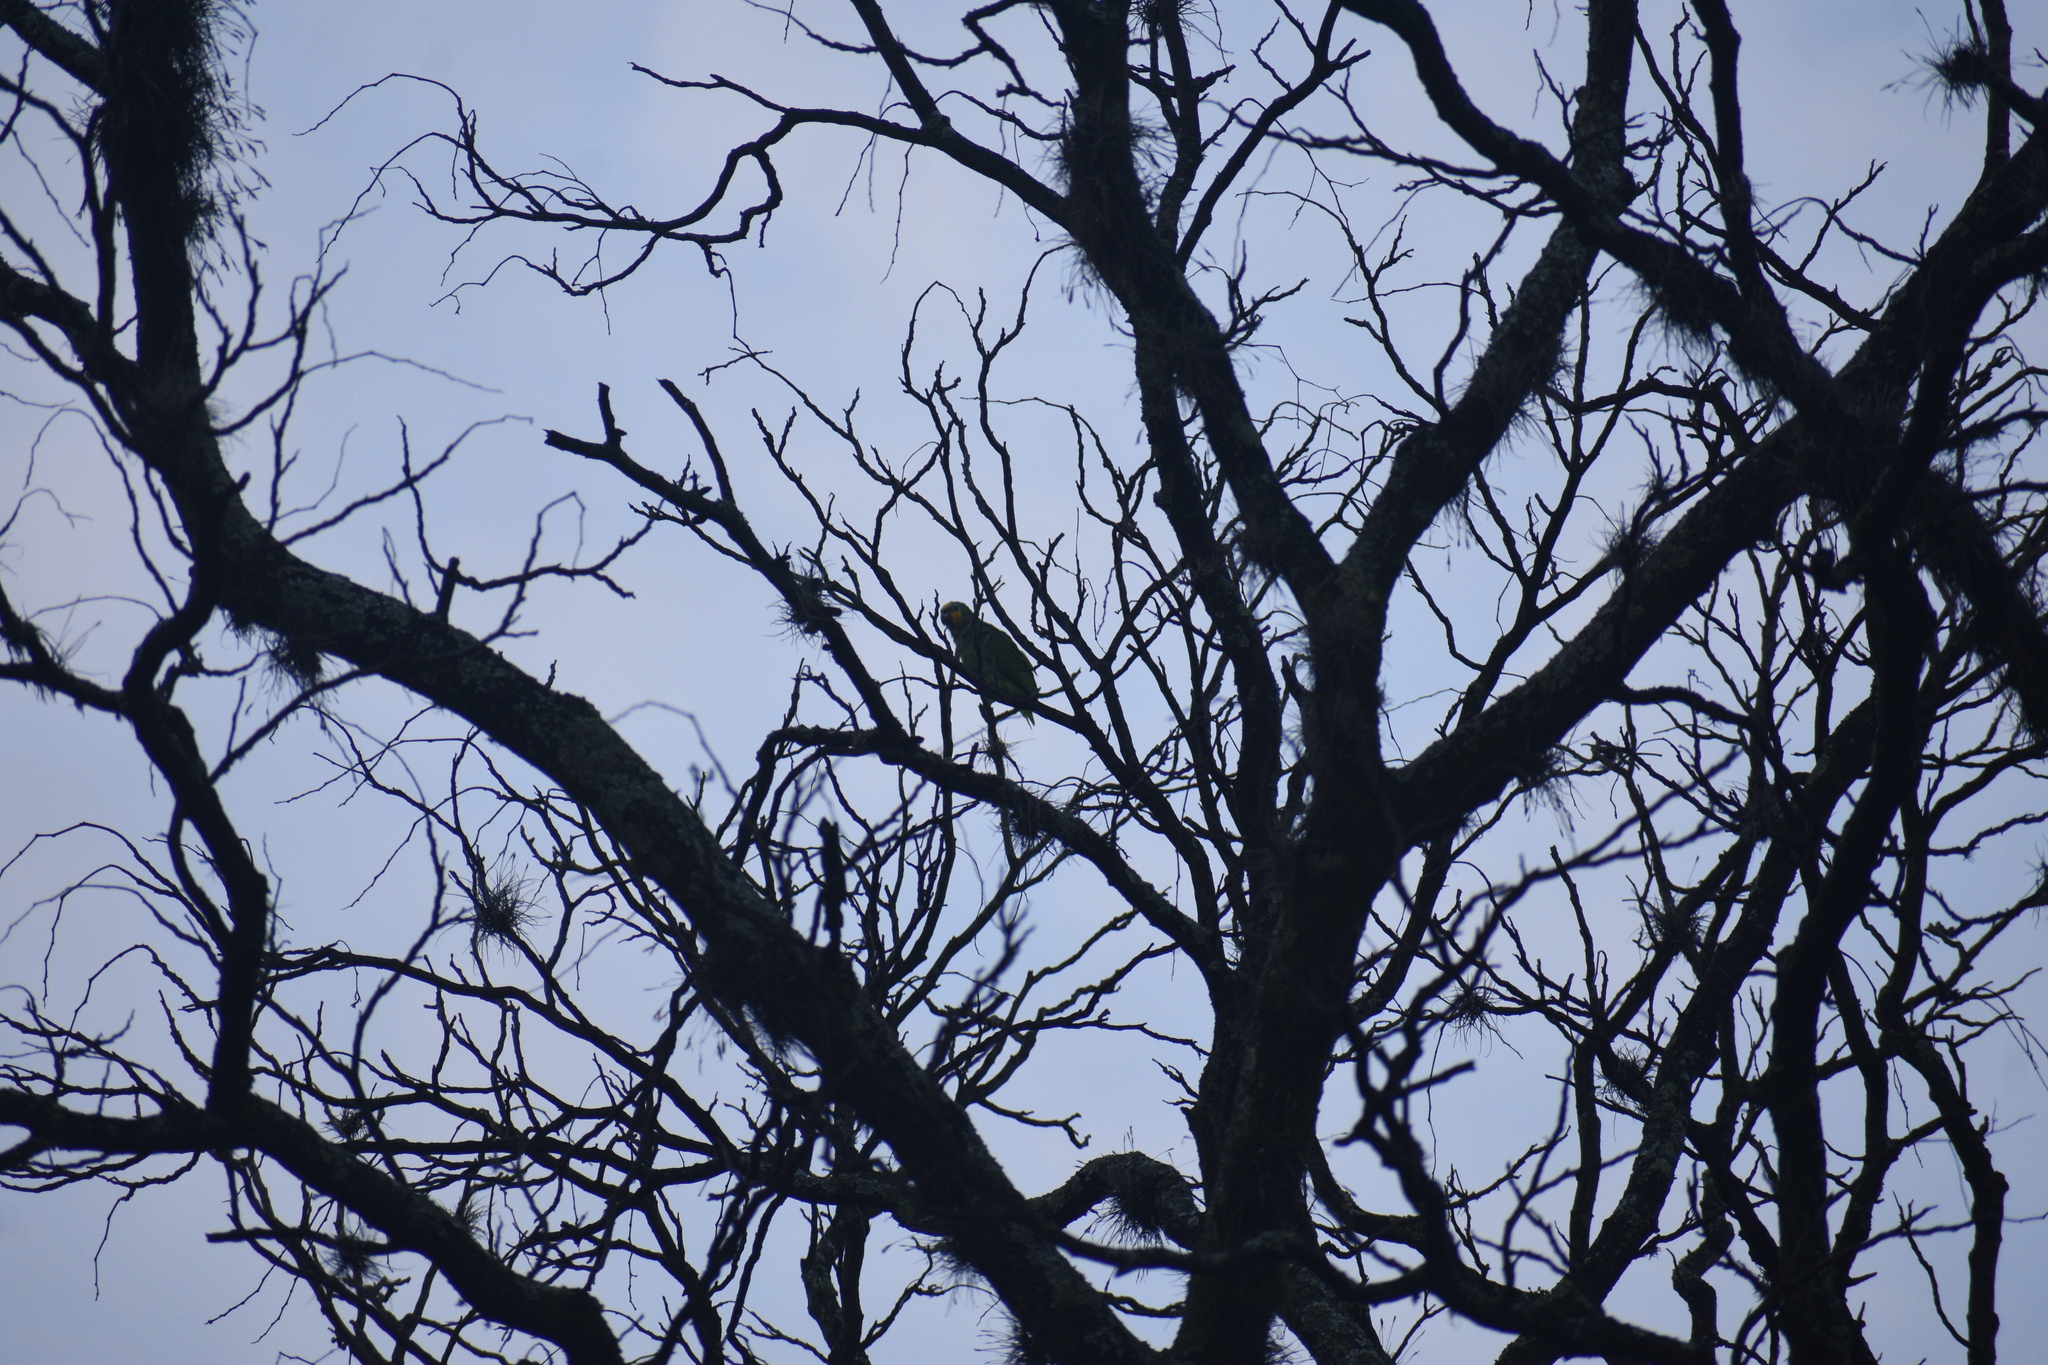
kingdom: Animalia
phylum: Chordata
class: Aves
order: Psittaciformes
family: Psittacidae
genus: Amazona
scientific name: Amazona amazonica
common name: Orange-winged amazon
